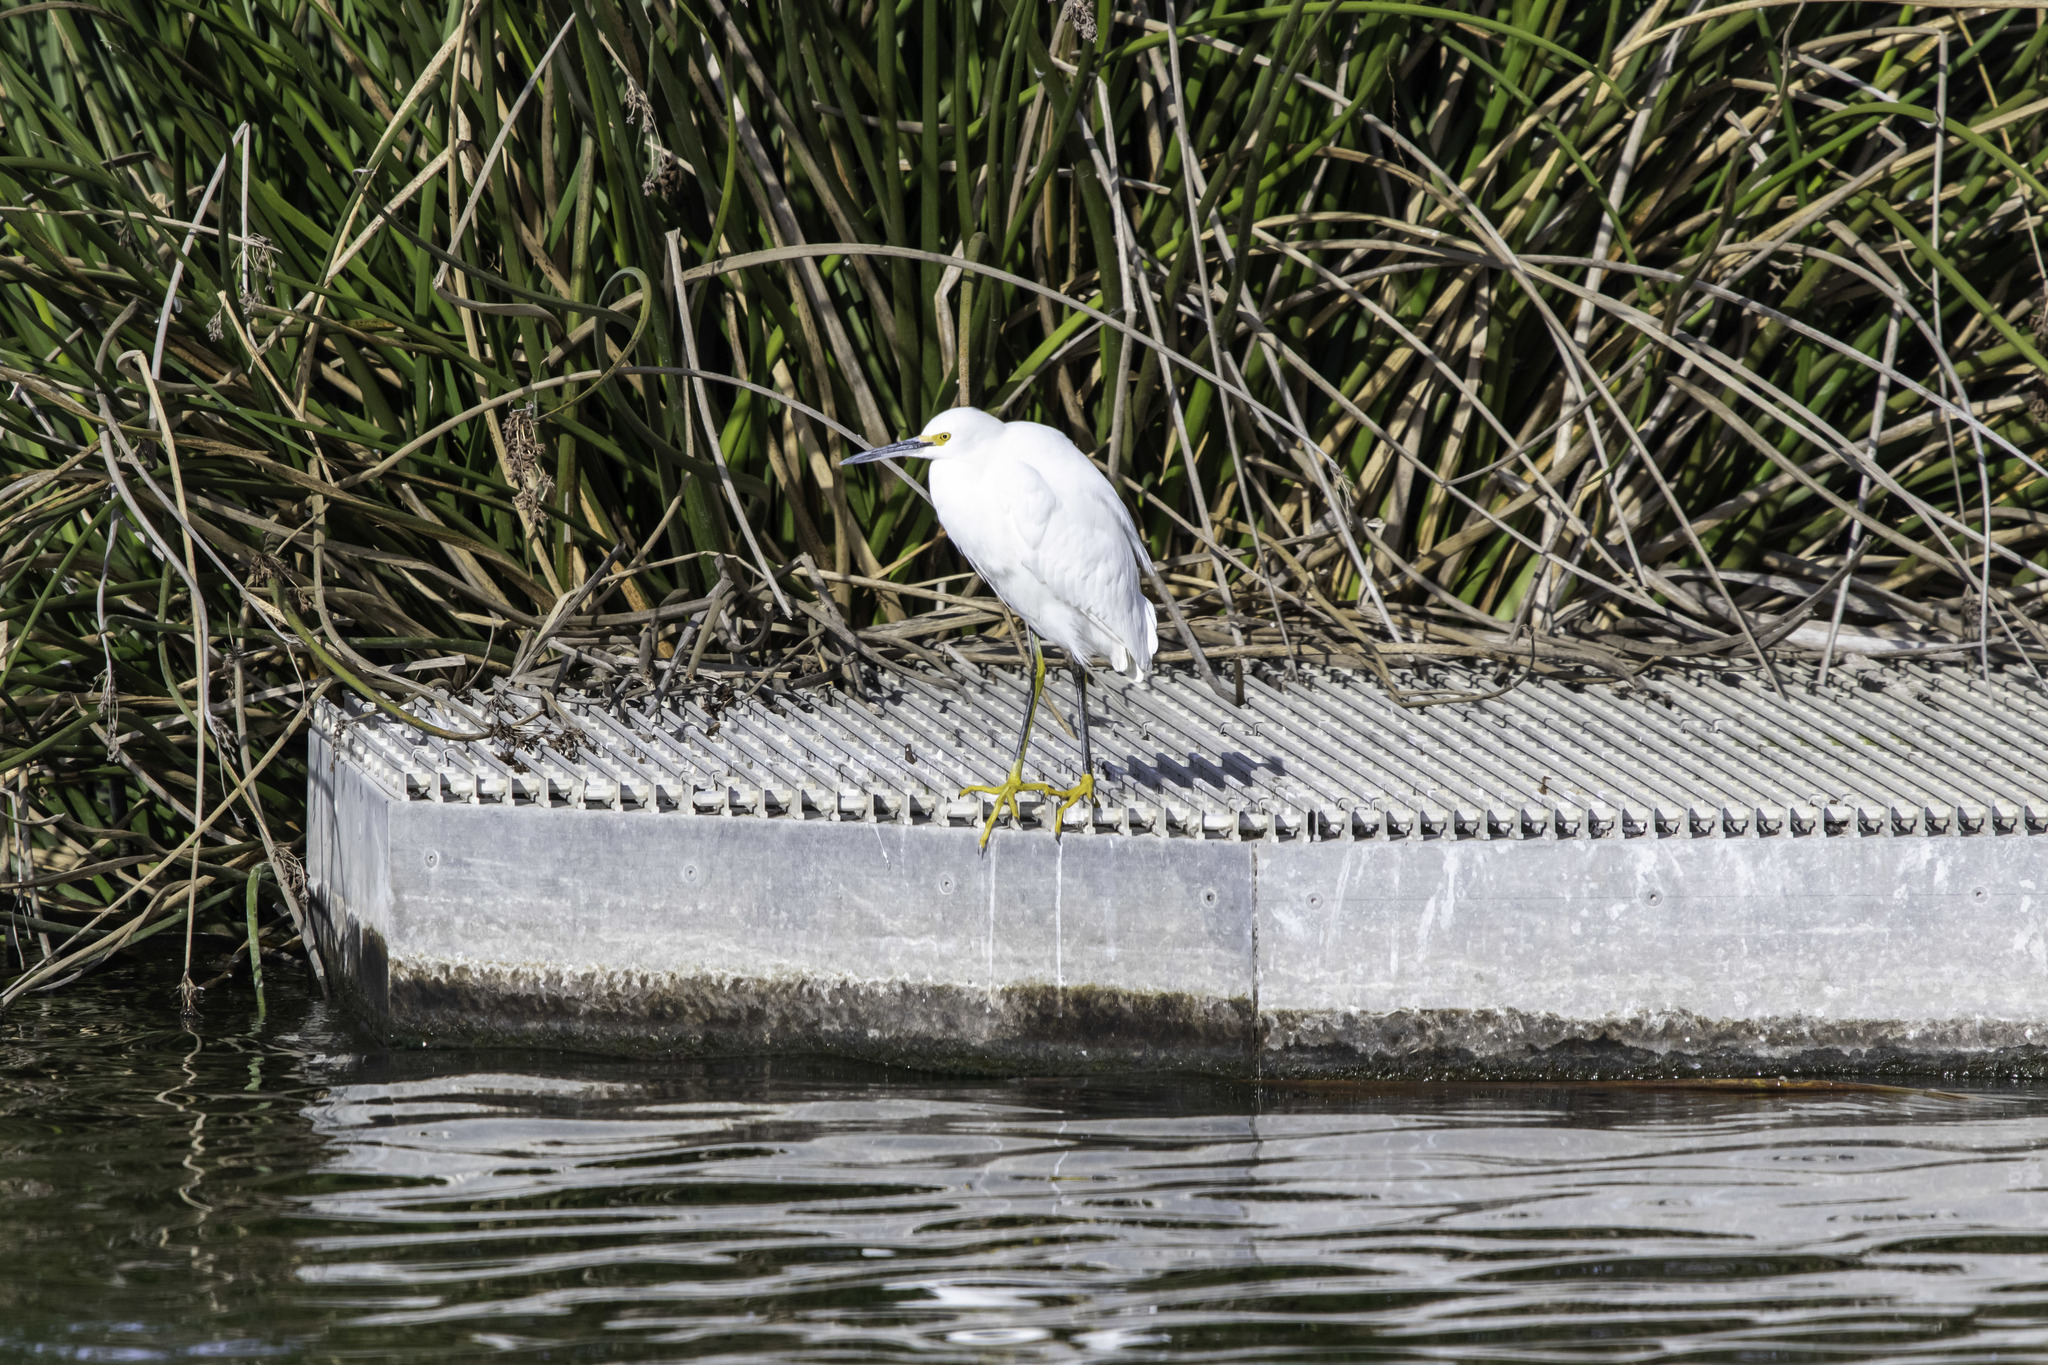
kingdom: Animalia
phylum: Chordata
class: Aves
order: Pelecaniformes
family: Ardeidae
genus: Egretta
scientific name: Egretta thula
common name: Snowy egret
